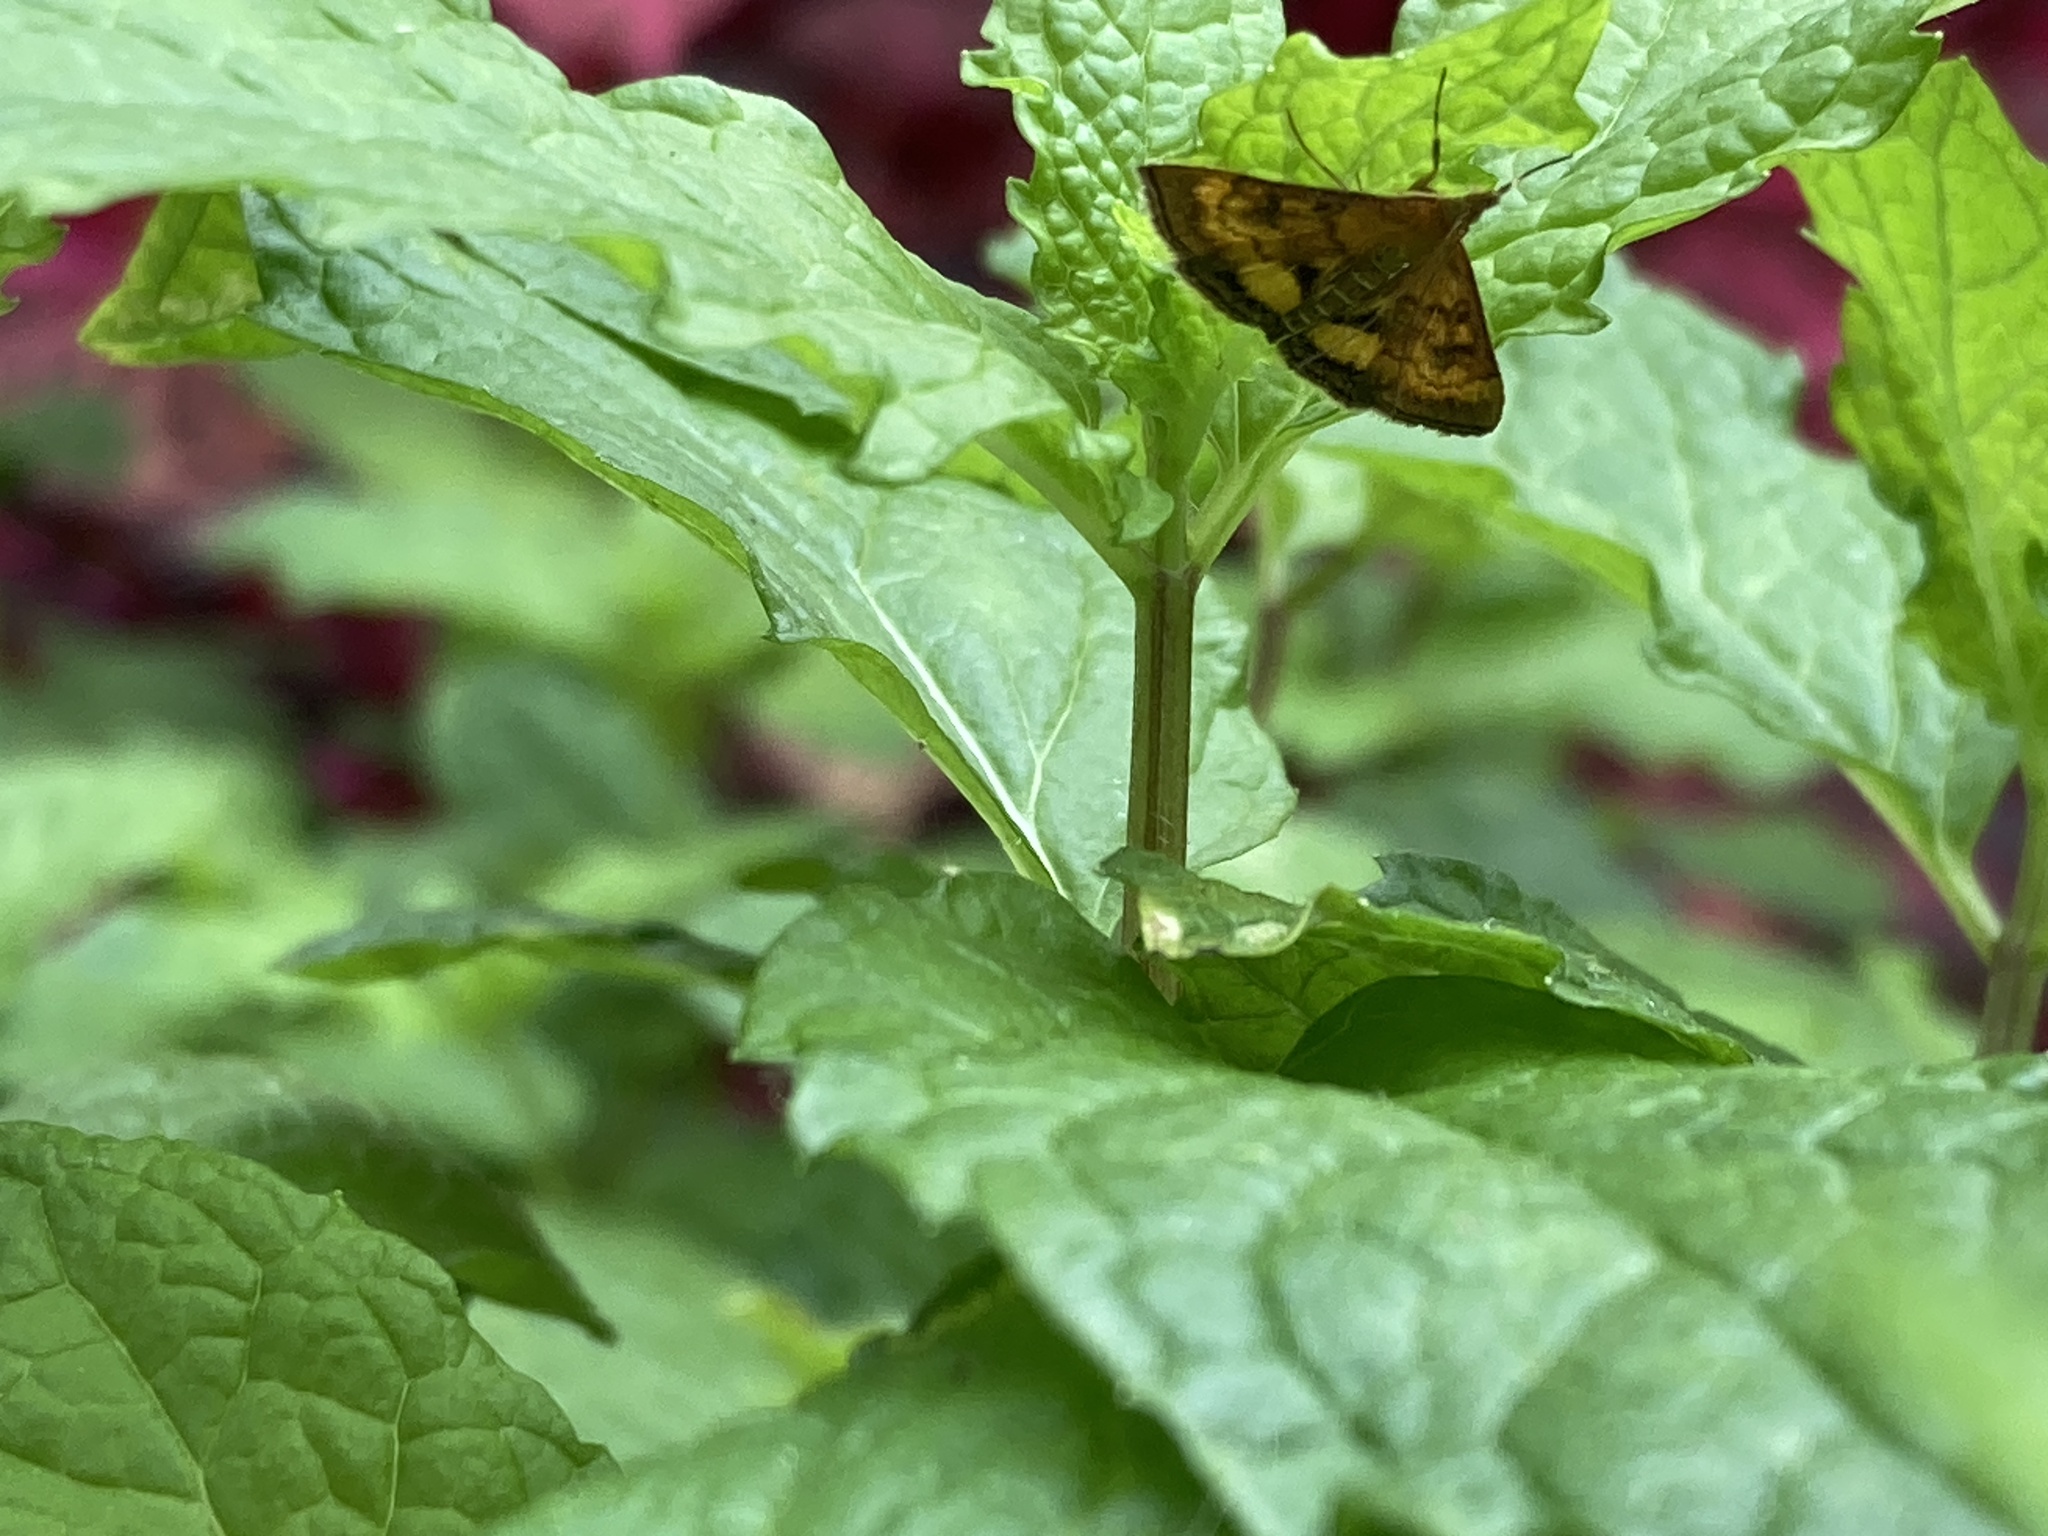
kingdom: Animalia
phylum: Arthropoda
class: Insecta
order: Lepidoptera
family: Crambidae
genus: Pyrausta
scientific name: Pyrausta californicalis
